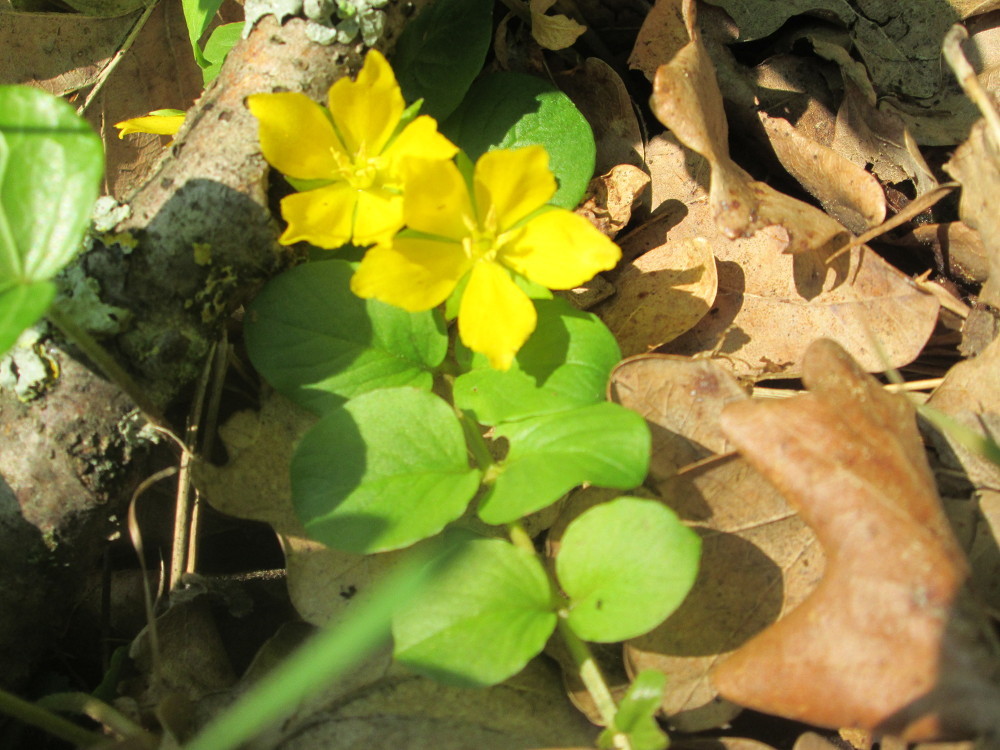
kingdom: Plantae
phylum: Tracheophyta
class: Magnoliopsida
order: Ericales
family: Primulaceae
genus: Lysimachia
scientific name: Lysimachia nummularia
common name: Moneywort
